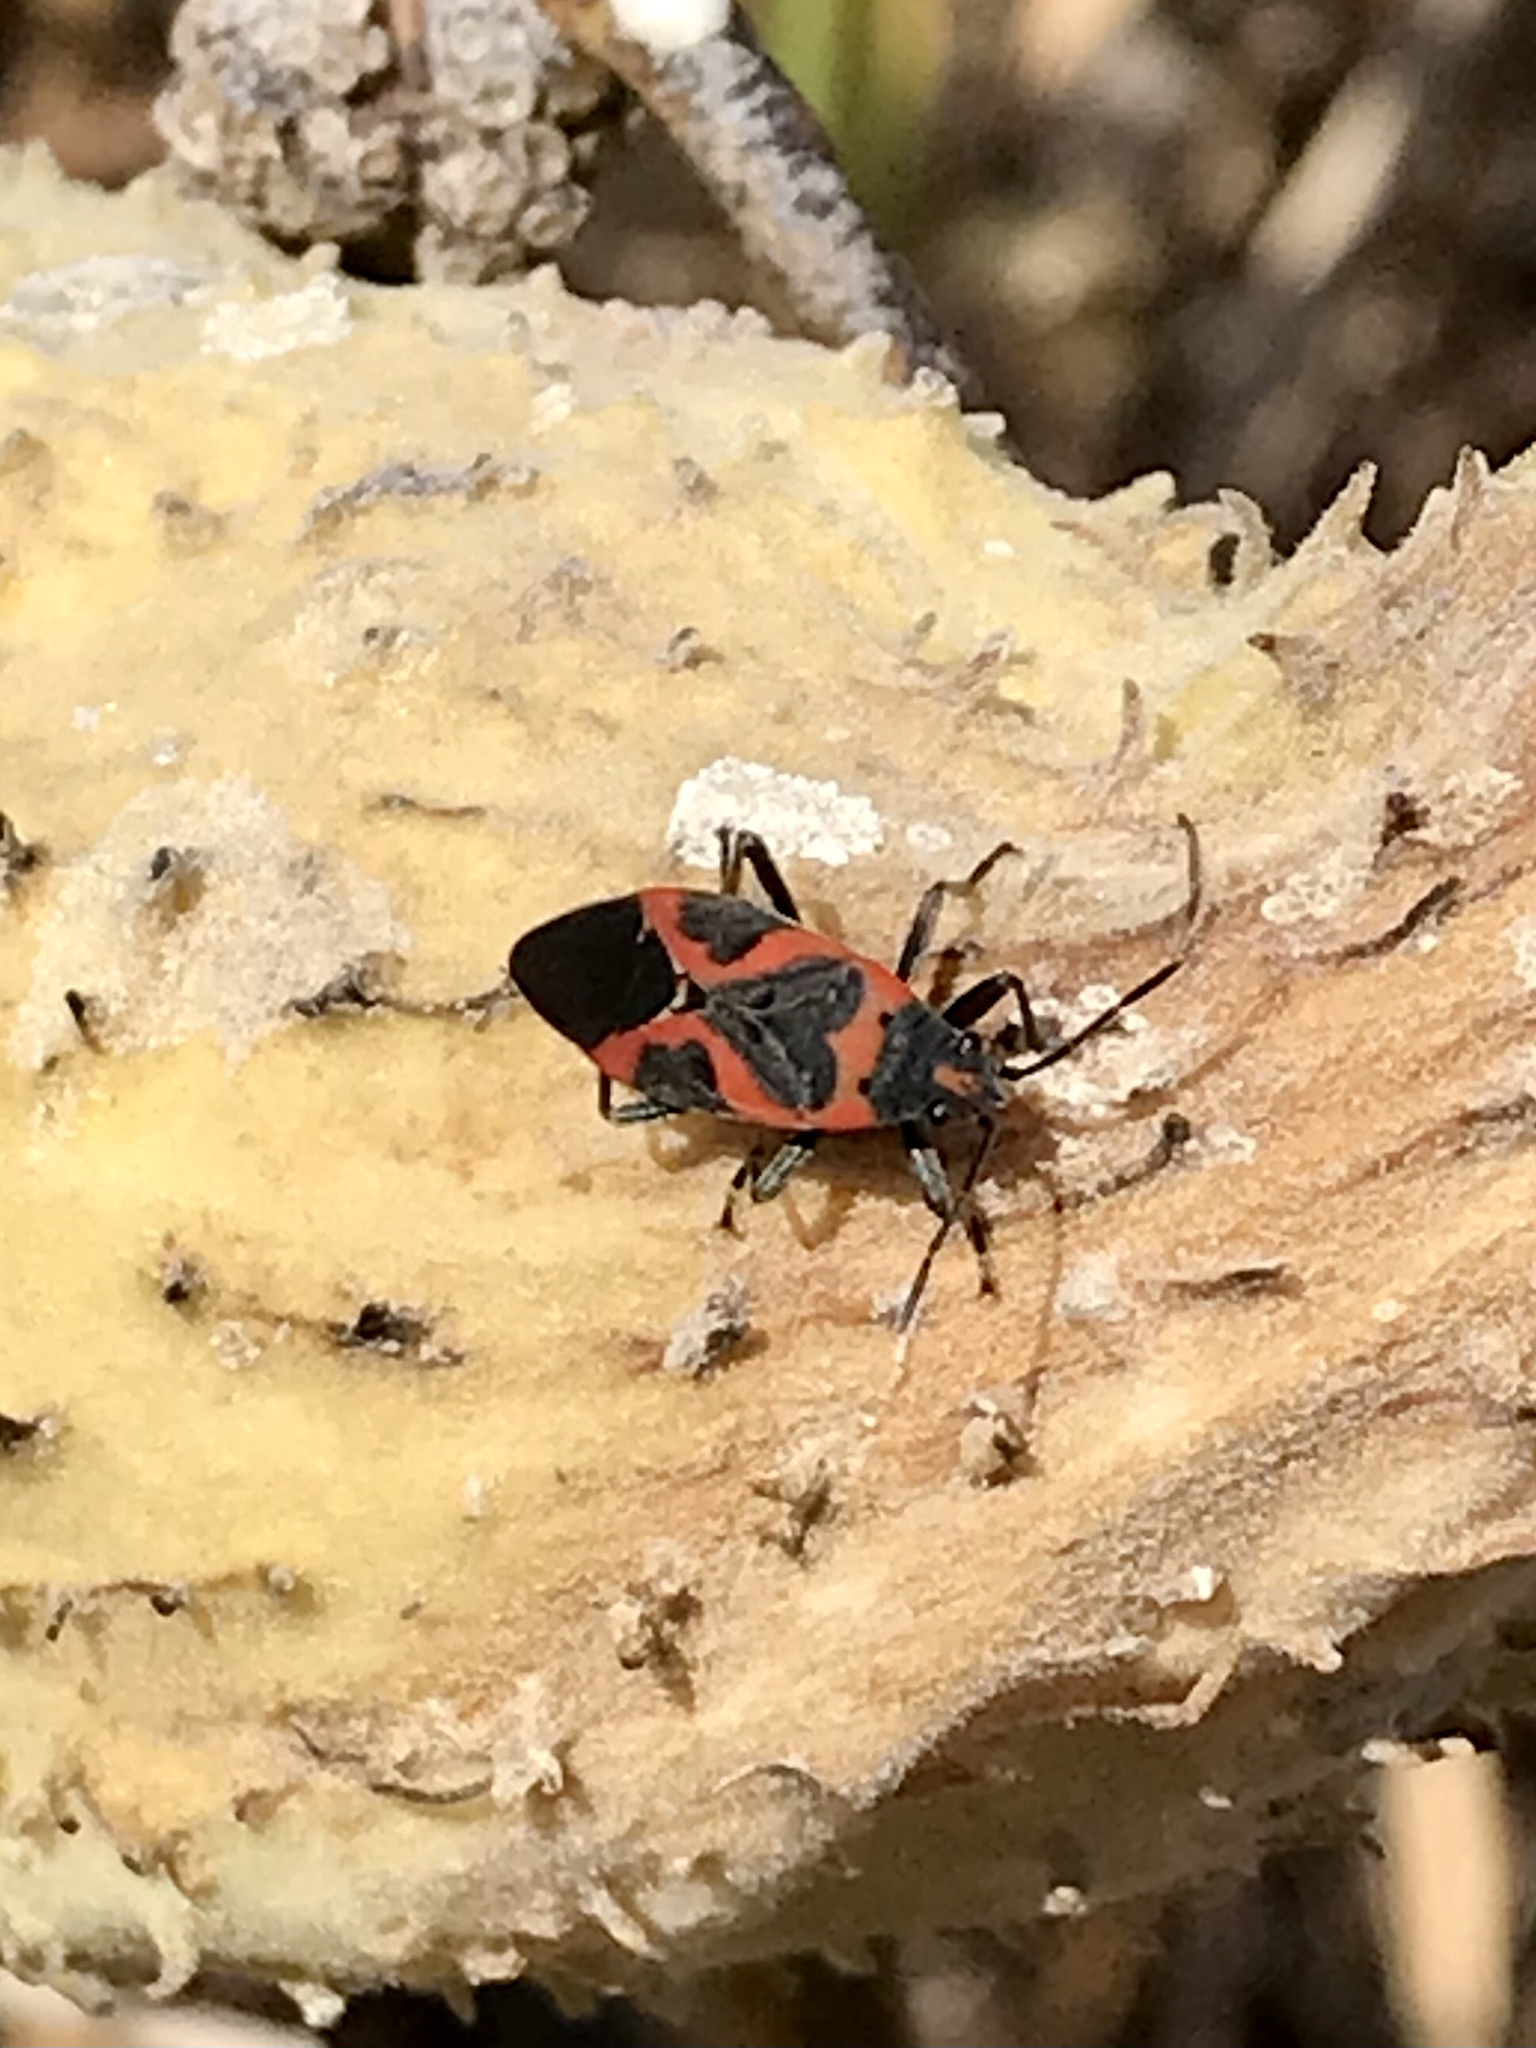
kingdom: Animalia
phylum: Arthropoda
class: Insecta
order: Hemiptera
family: Lygaeidae
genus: Lygaeus
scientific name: Lygaeus kalmii
